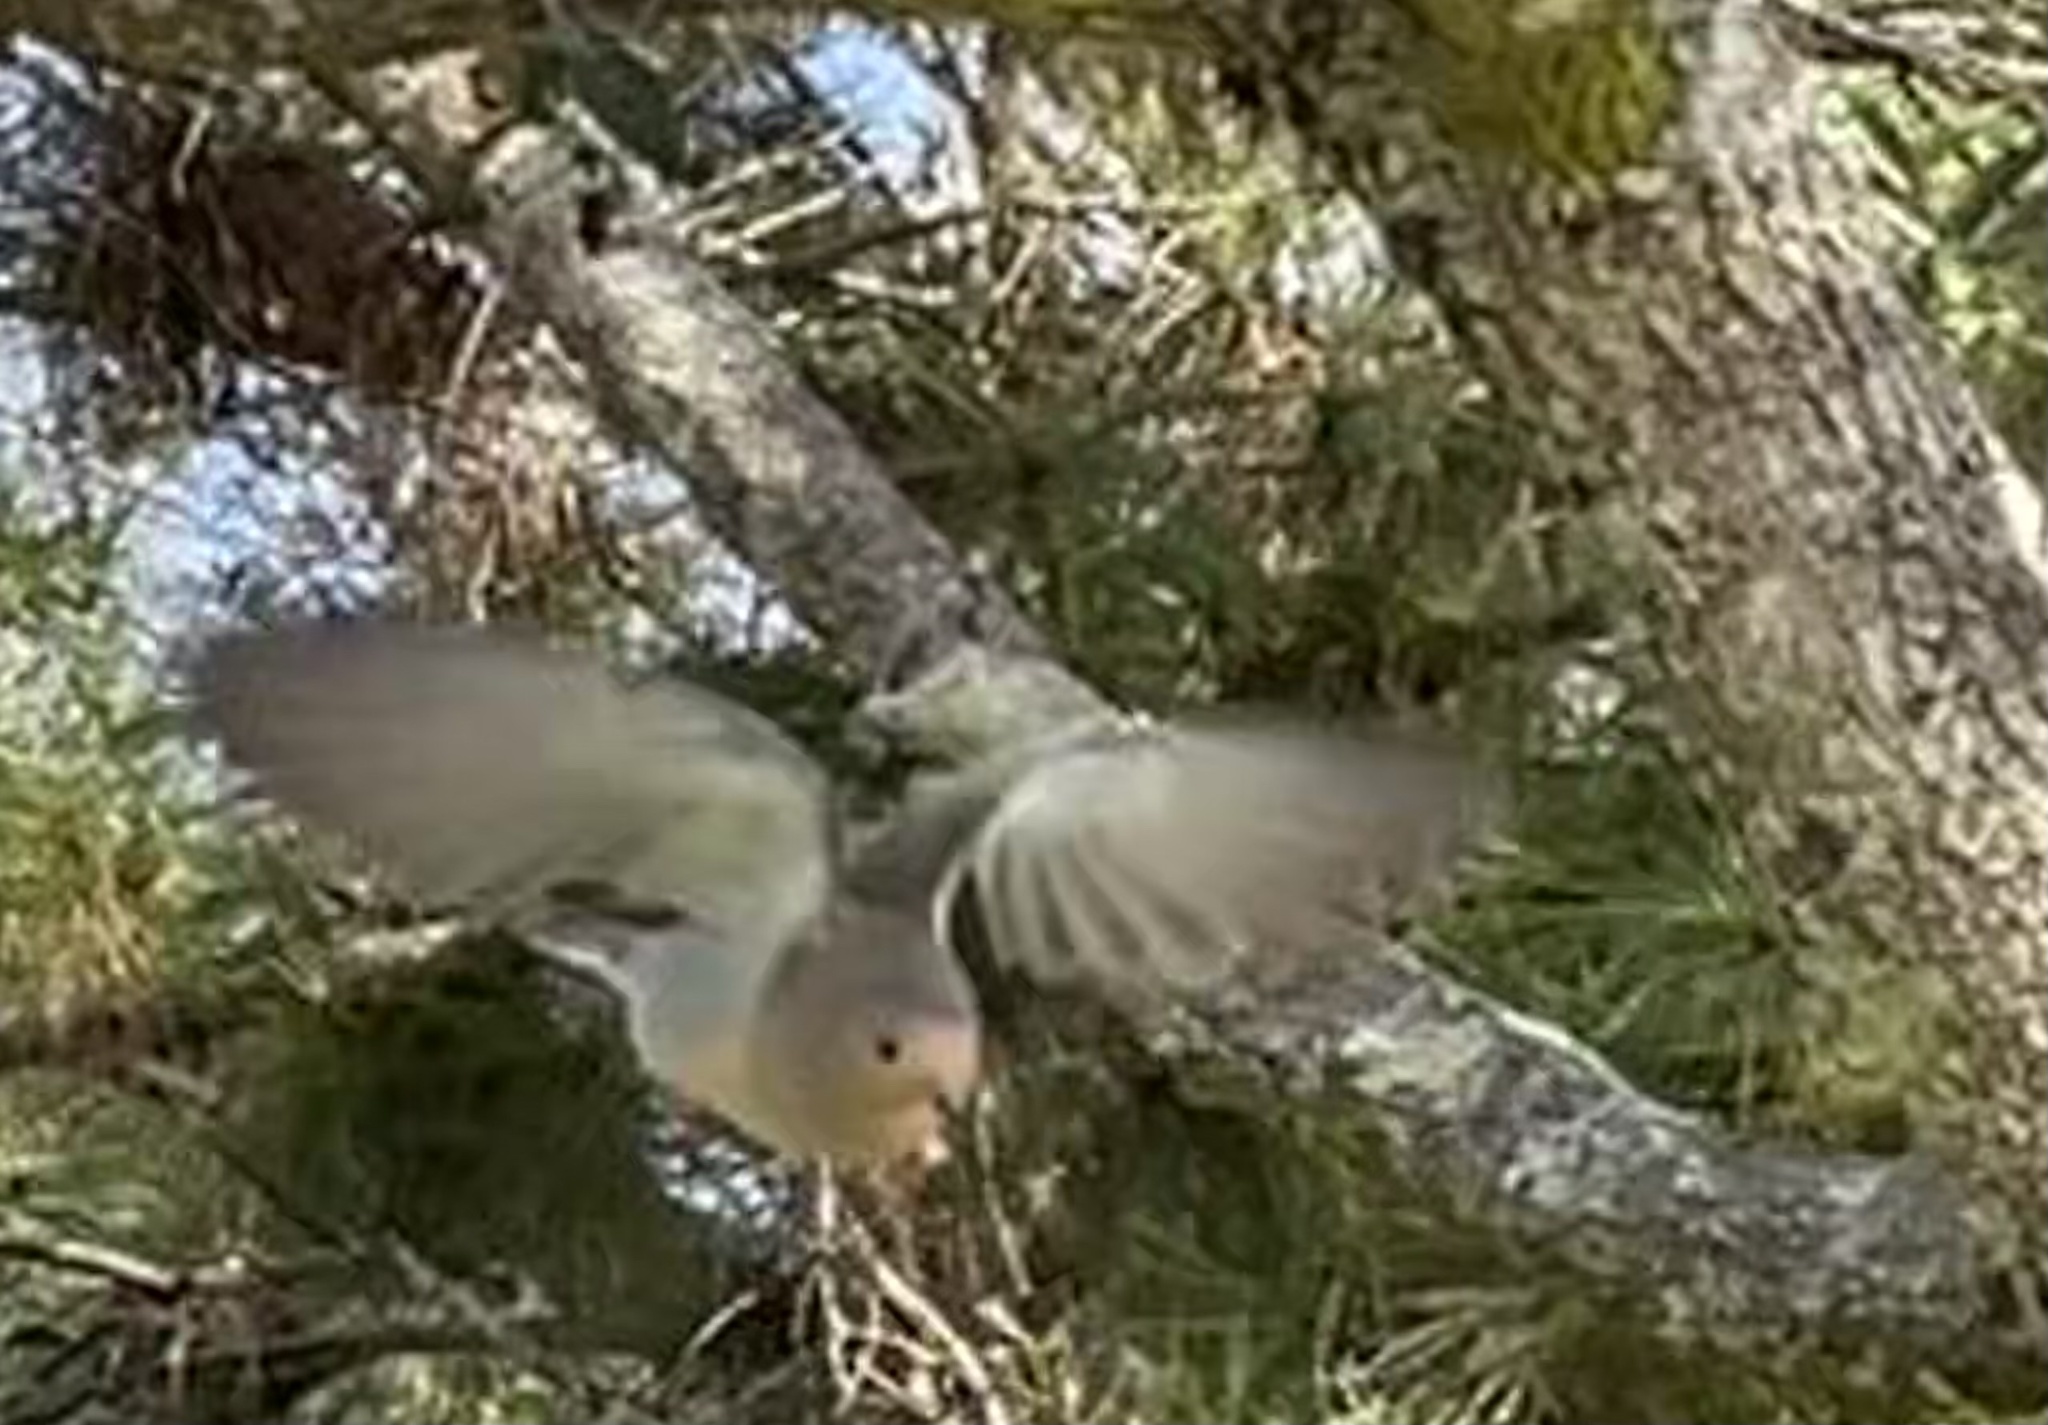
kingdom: Animalia
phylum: Chordata
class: Aves
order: Columbiformes
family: Columbidae
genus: Zenaida
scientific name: Zenaida macroura
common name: Mourning dove
